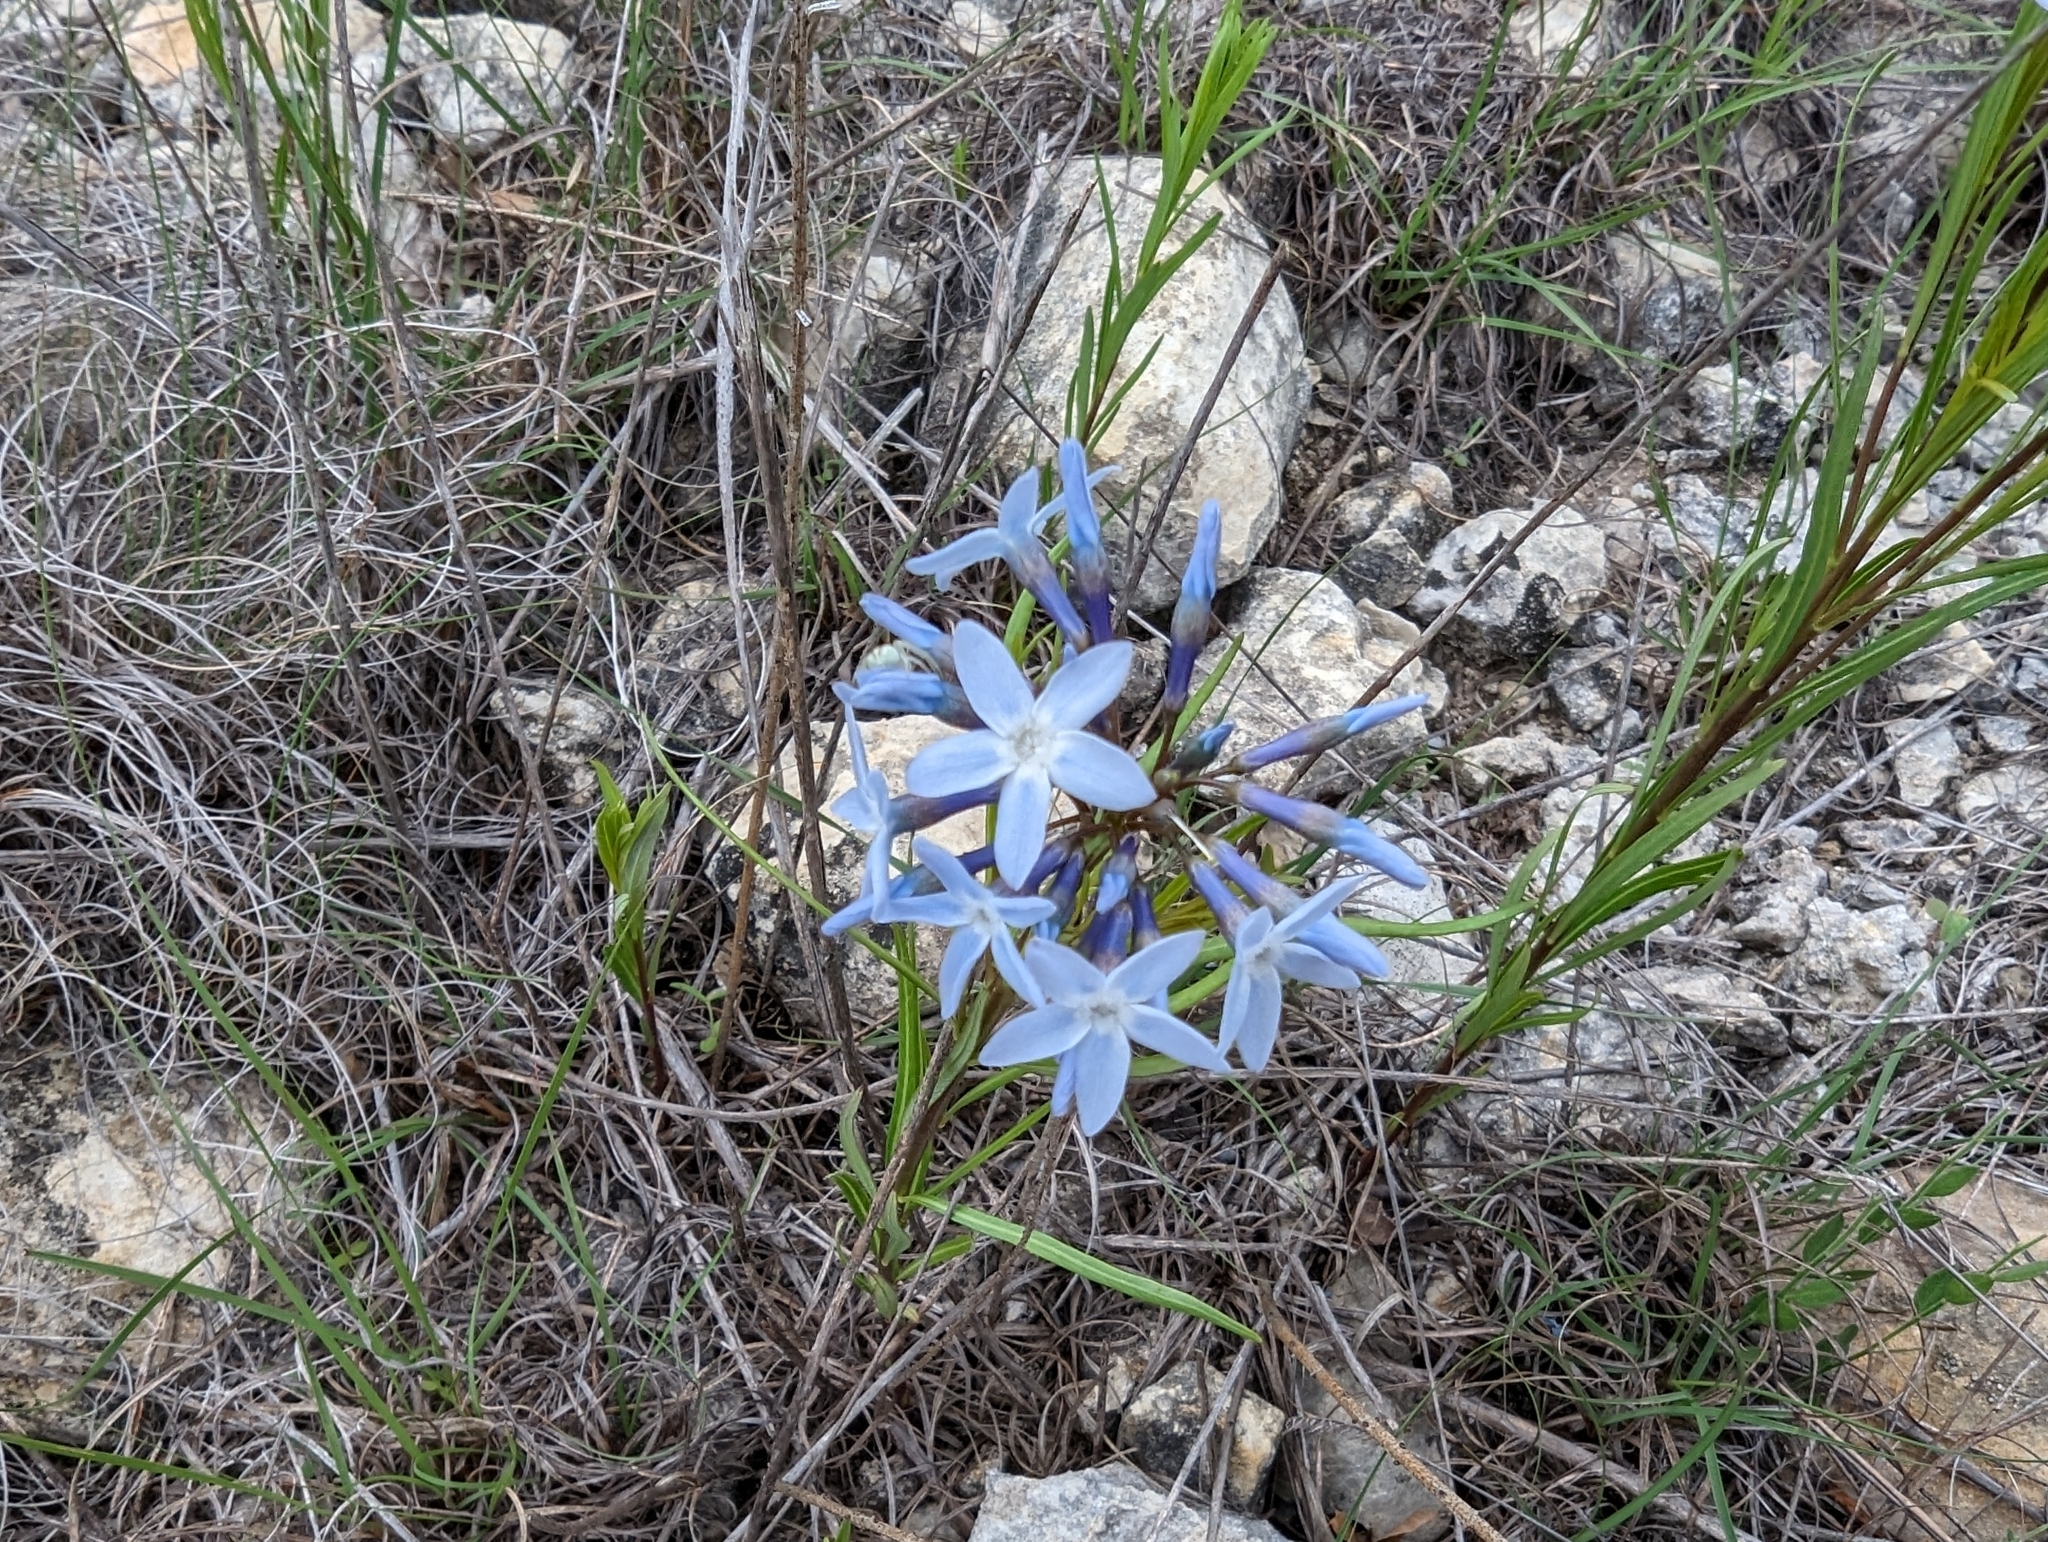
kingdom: Plantae
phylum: Tracheophyta
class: Magnoliopsida
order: Gentianales
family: Apocynaceae
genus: Amsonia
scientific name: Amsonia ciliata
